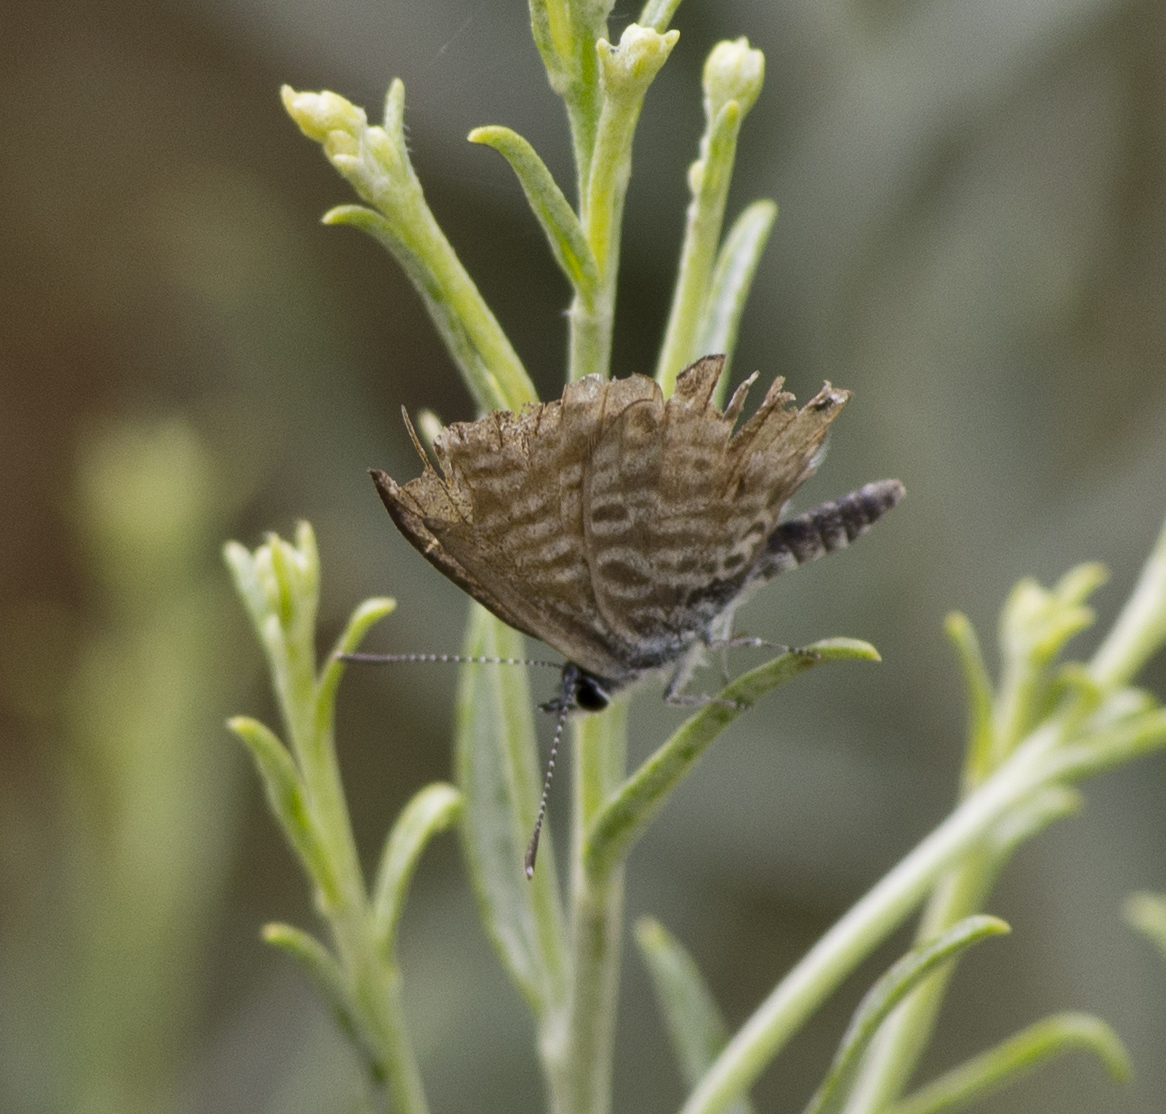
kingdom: Animalia
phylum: Arthropoda
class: Insecta
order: Lepidoptera
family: Lycaenidae
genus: Leptotes
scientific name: Leptotes marina
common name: Marine blue
